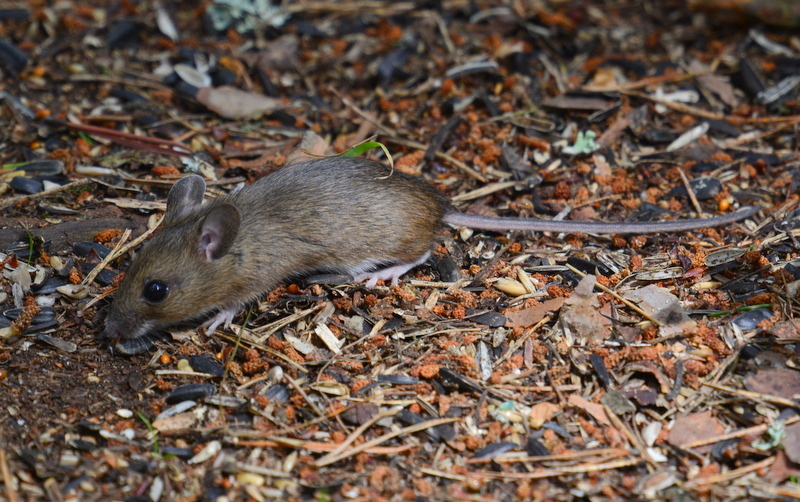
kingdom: Animalia
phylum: Chordata
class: Mammalia
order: Rodentia
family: Muridae
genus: Apodemus
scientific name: Apodemus sylvaticus
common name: Wood mouse
